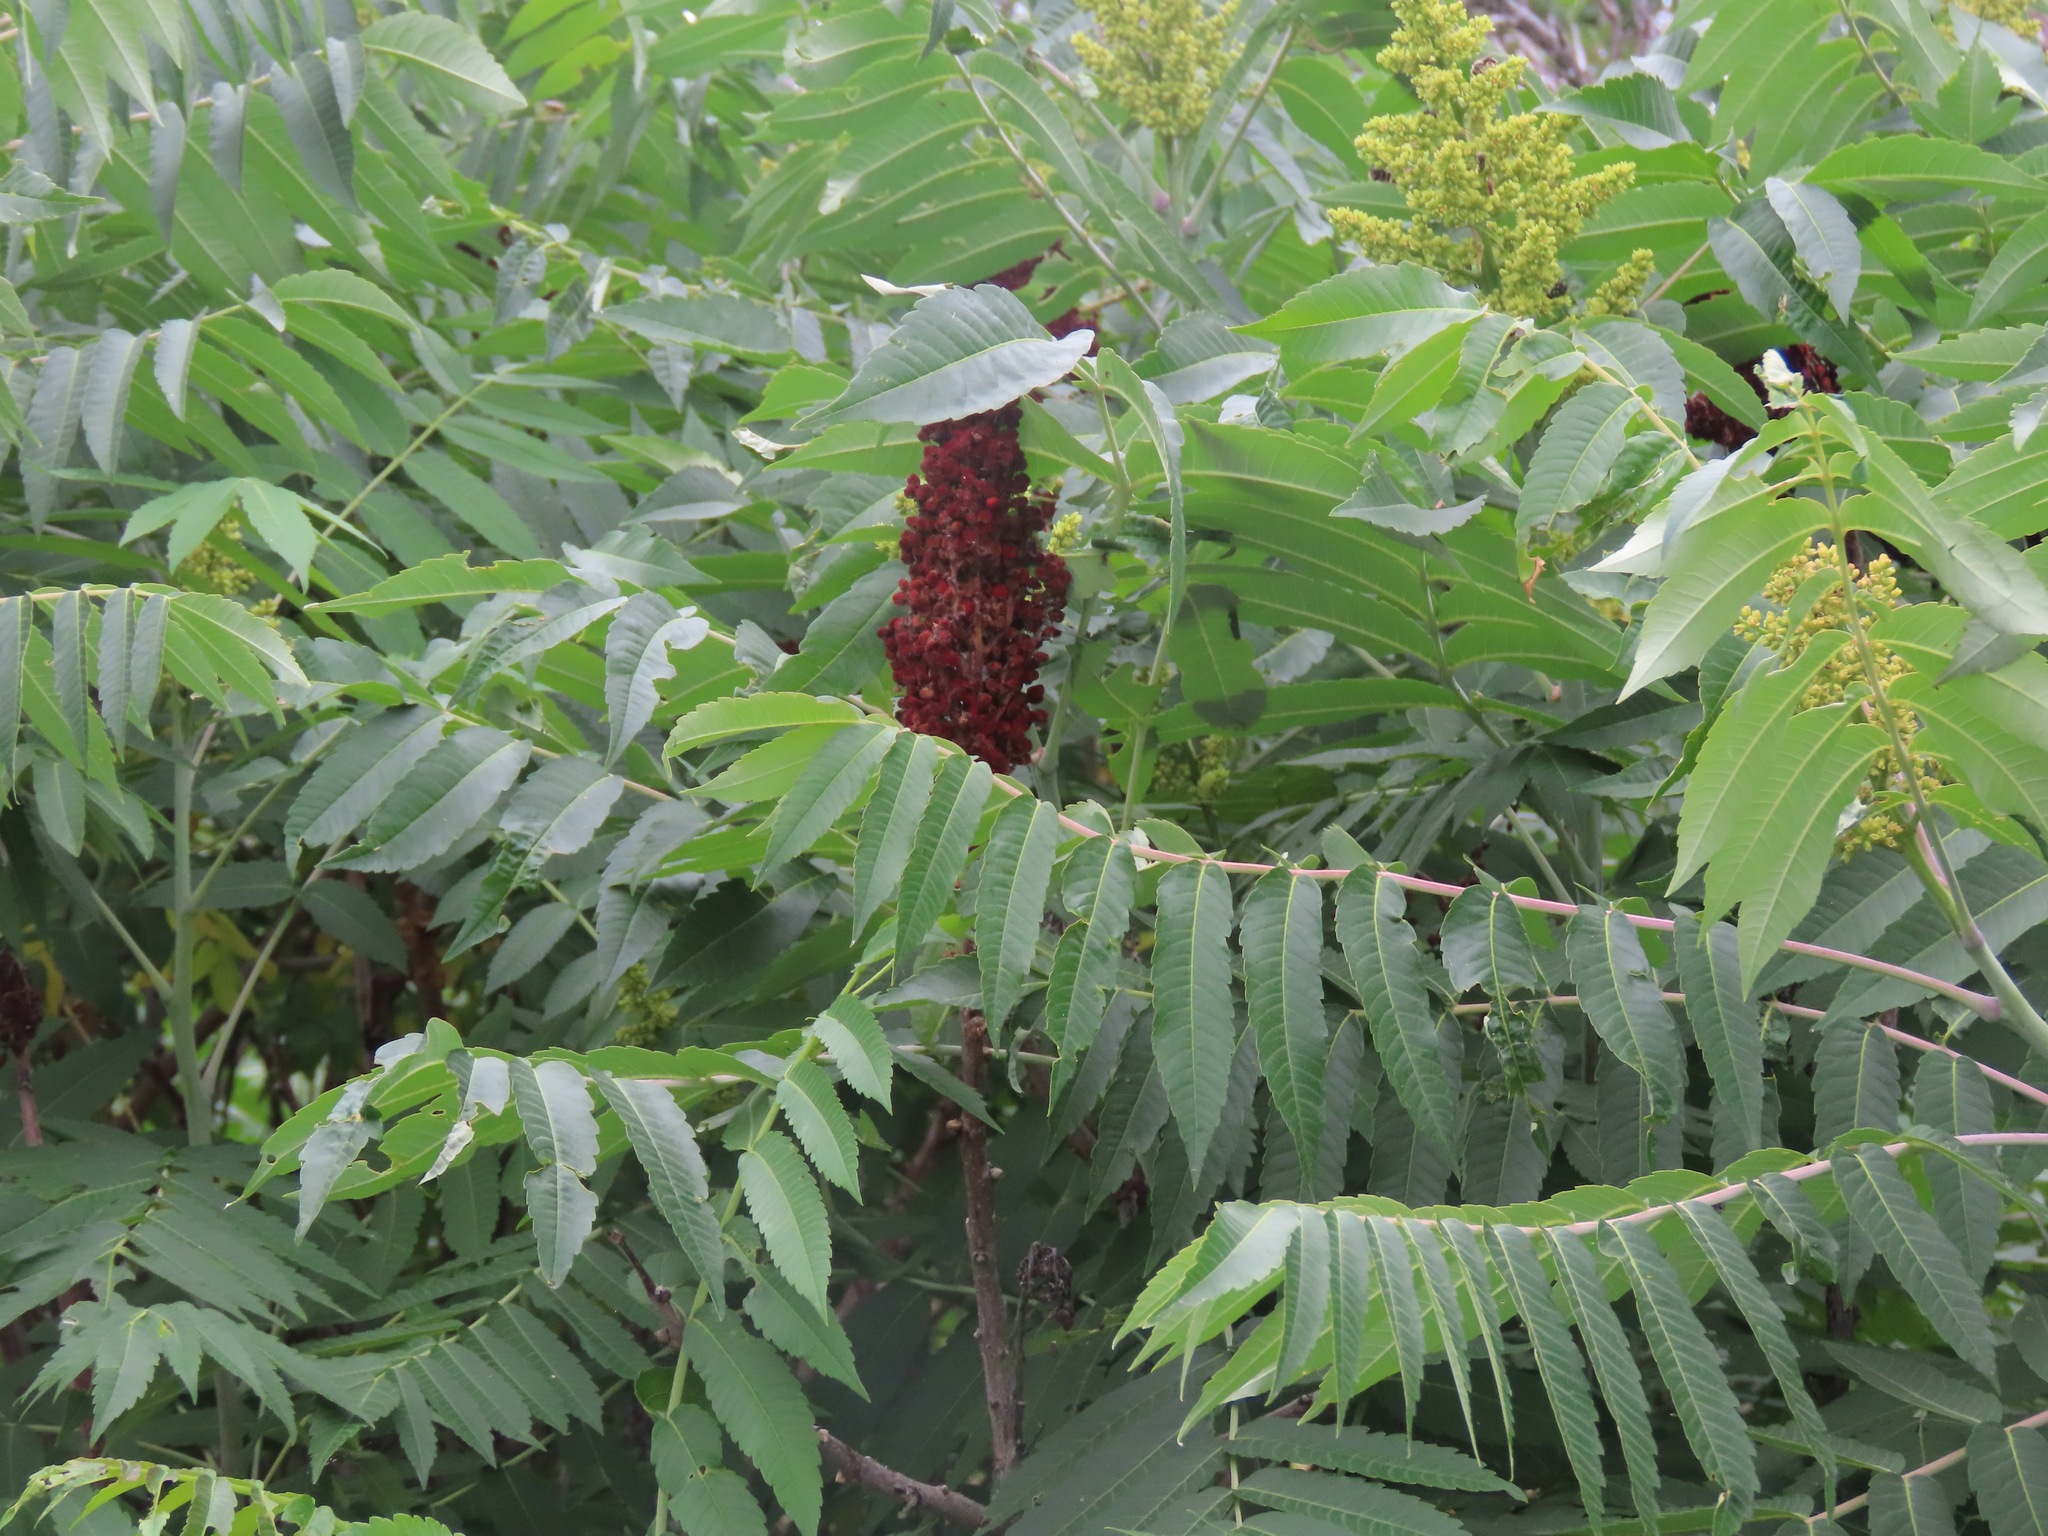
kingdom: Plantae
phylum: Tracheophyta
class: Magnoliopsida
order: Sapindales
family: Anacardiaceae
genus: Rhus
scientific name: Rhus glabra
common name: Scarlet sumac
